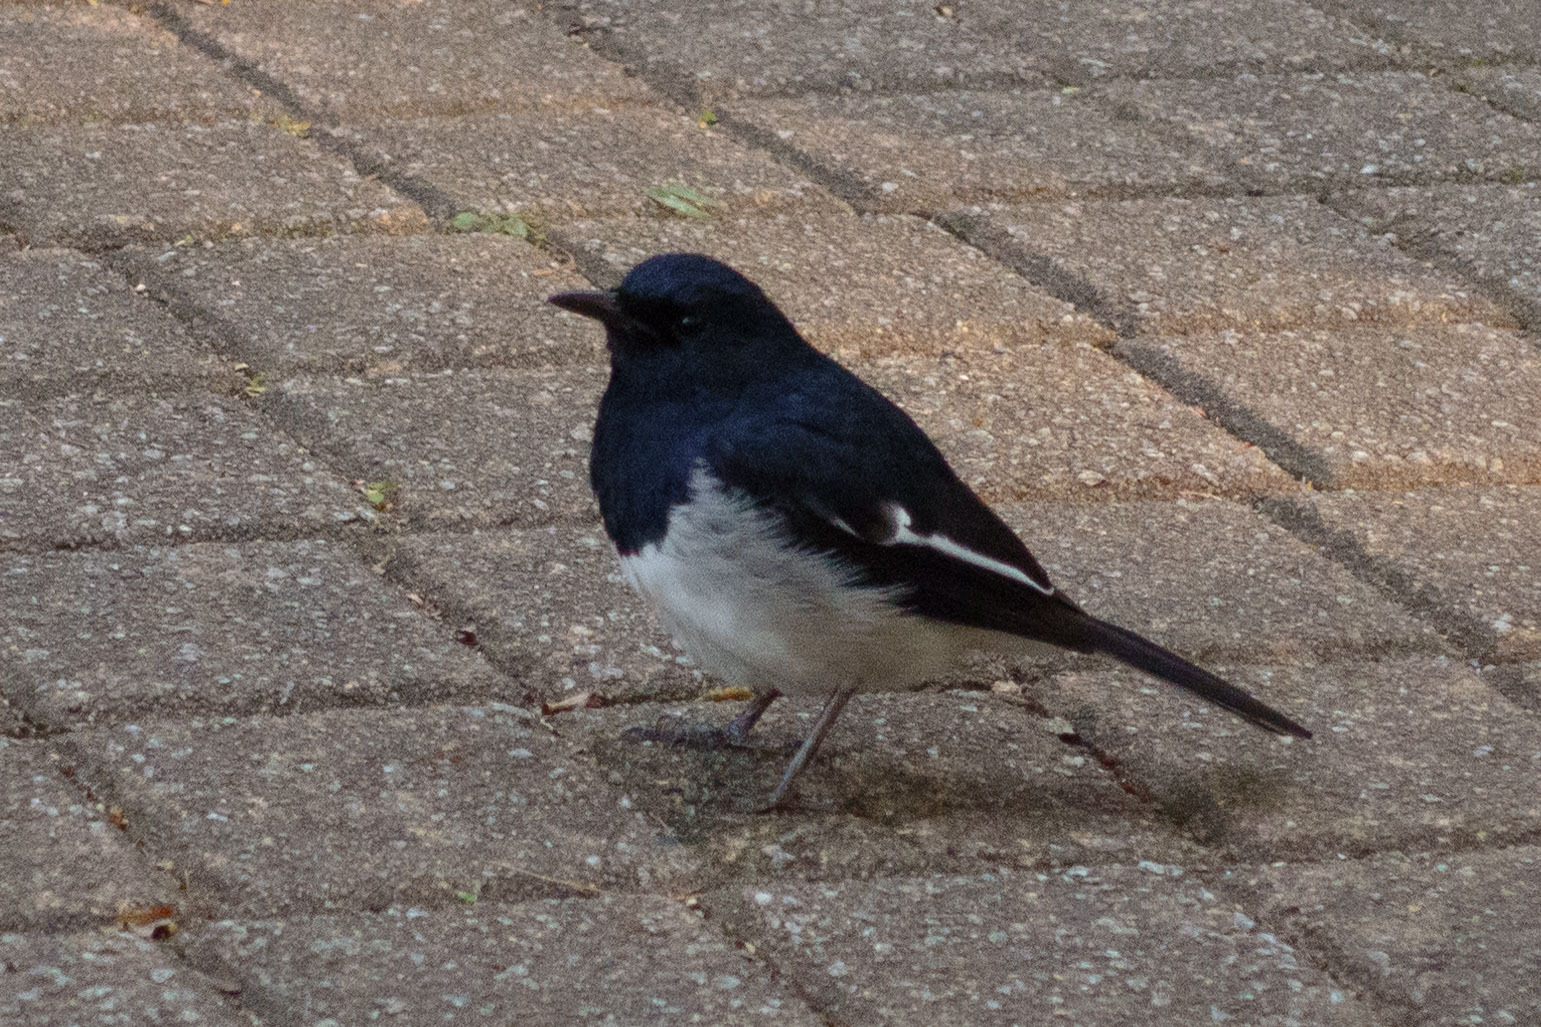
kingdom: Animalia
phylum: Chordata
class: Aves
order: Passeriformes
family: Muscicapidae
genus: Copsychus
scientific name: Copsychus saularis
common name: Oriental magpie-robin
